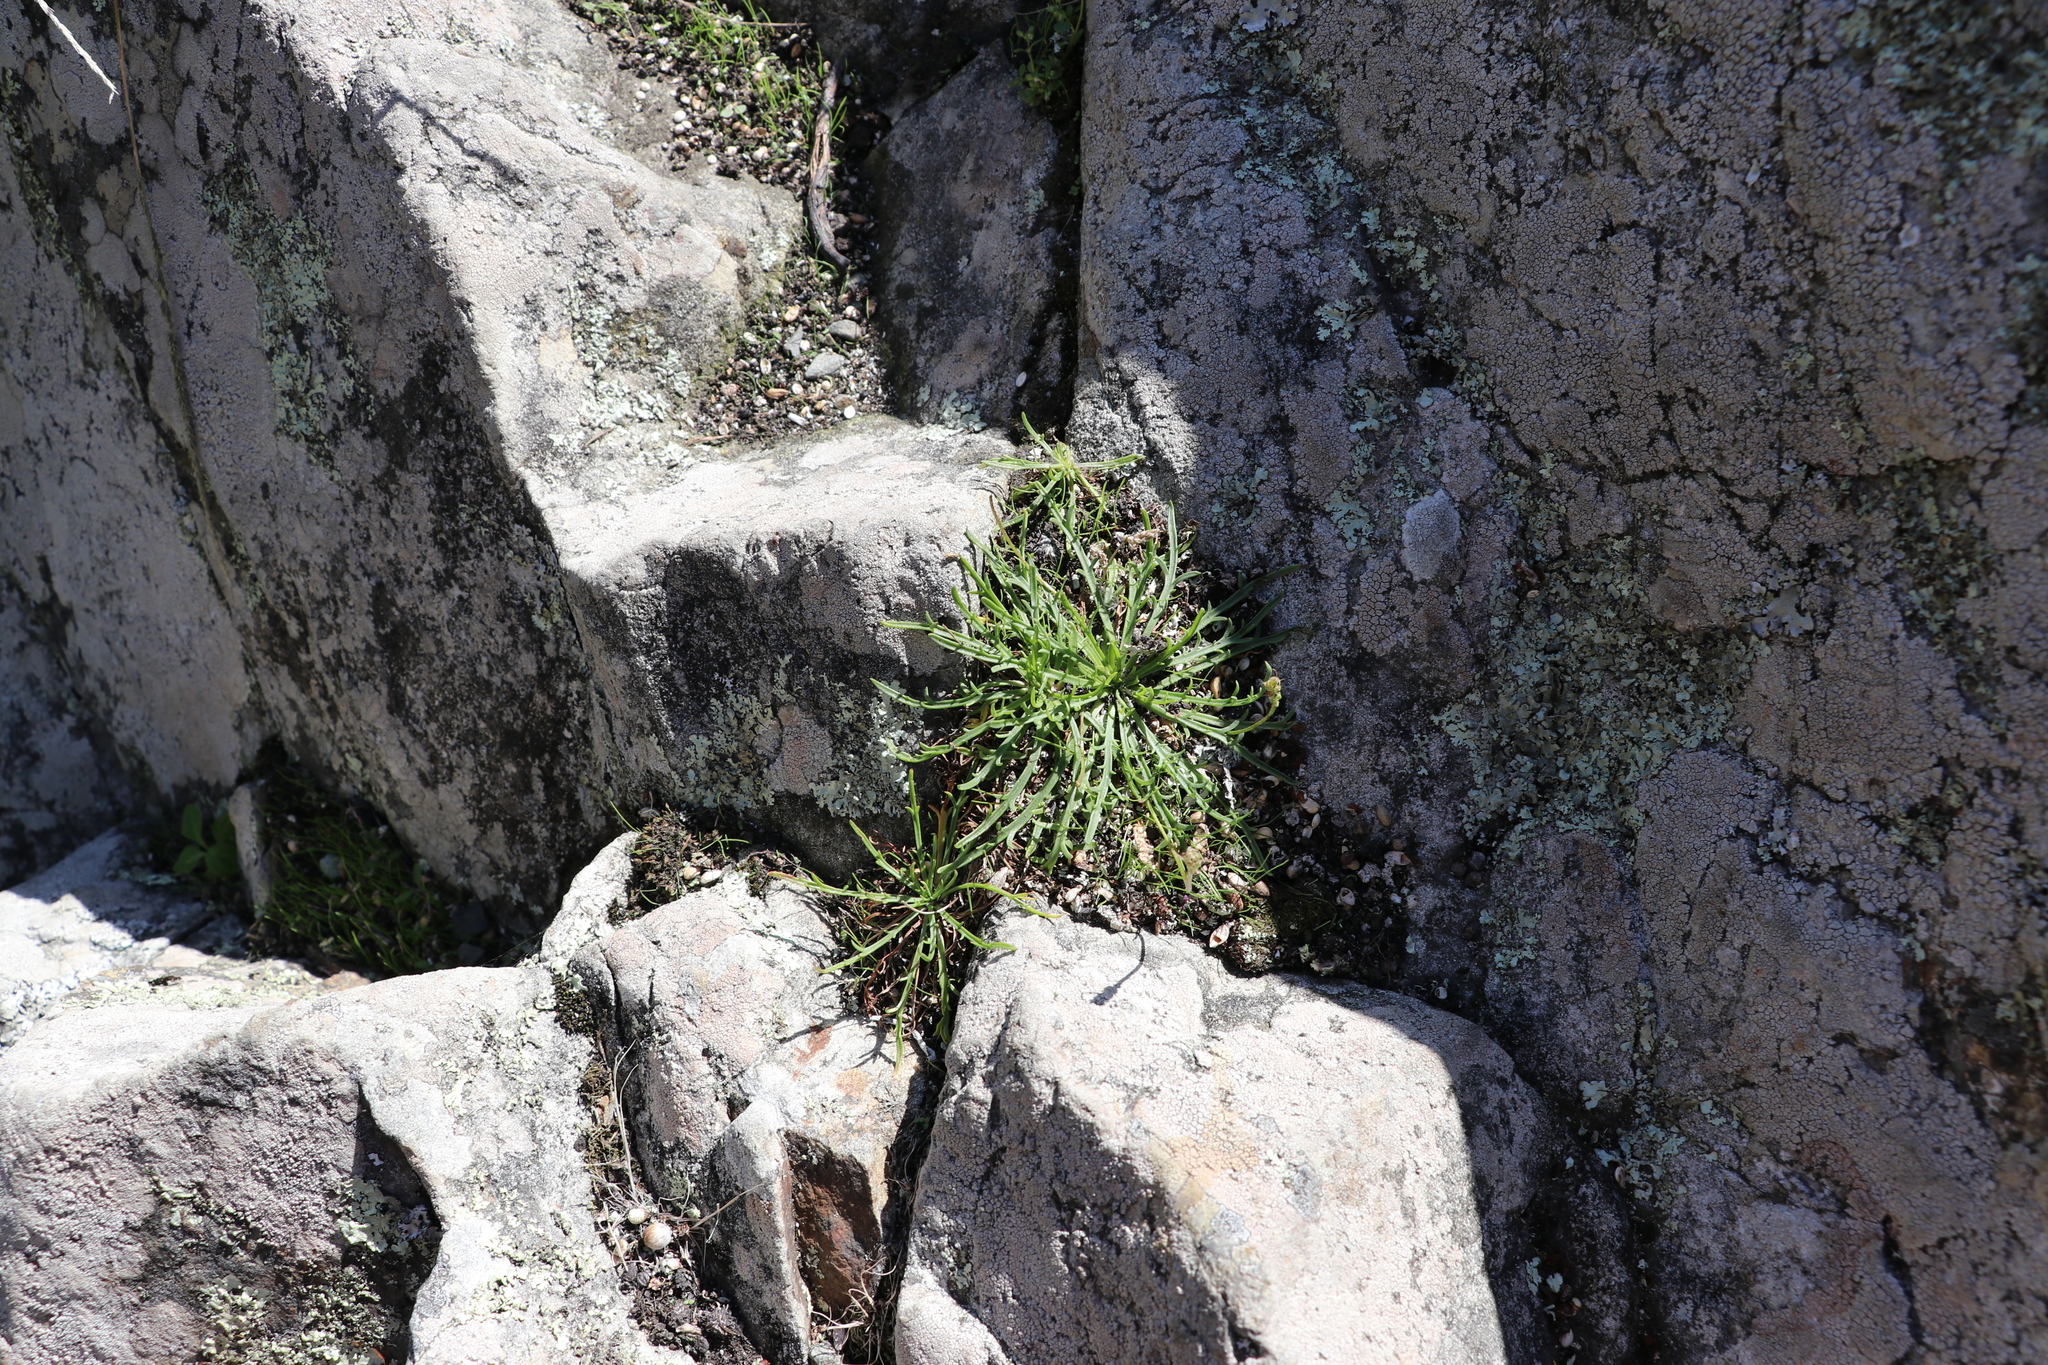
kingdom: Plantae
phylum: Tracheophyta
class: Magnoliopsida
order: Lamiales
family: Plantaginaceae
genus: Plantago
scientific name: Plantago coronopus
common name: Buck's-horn plantain
